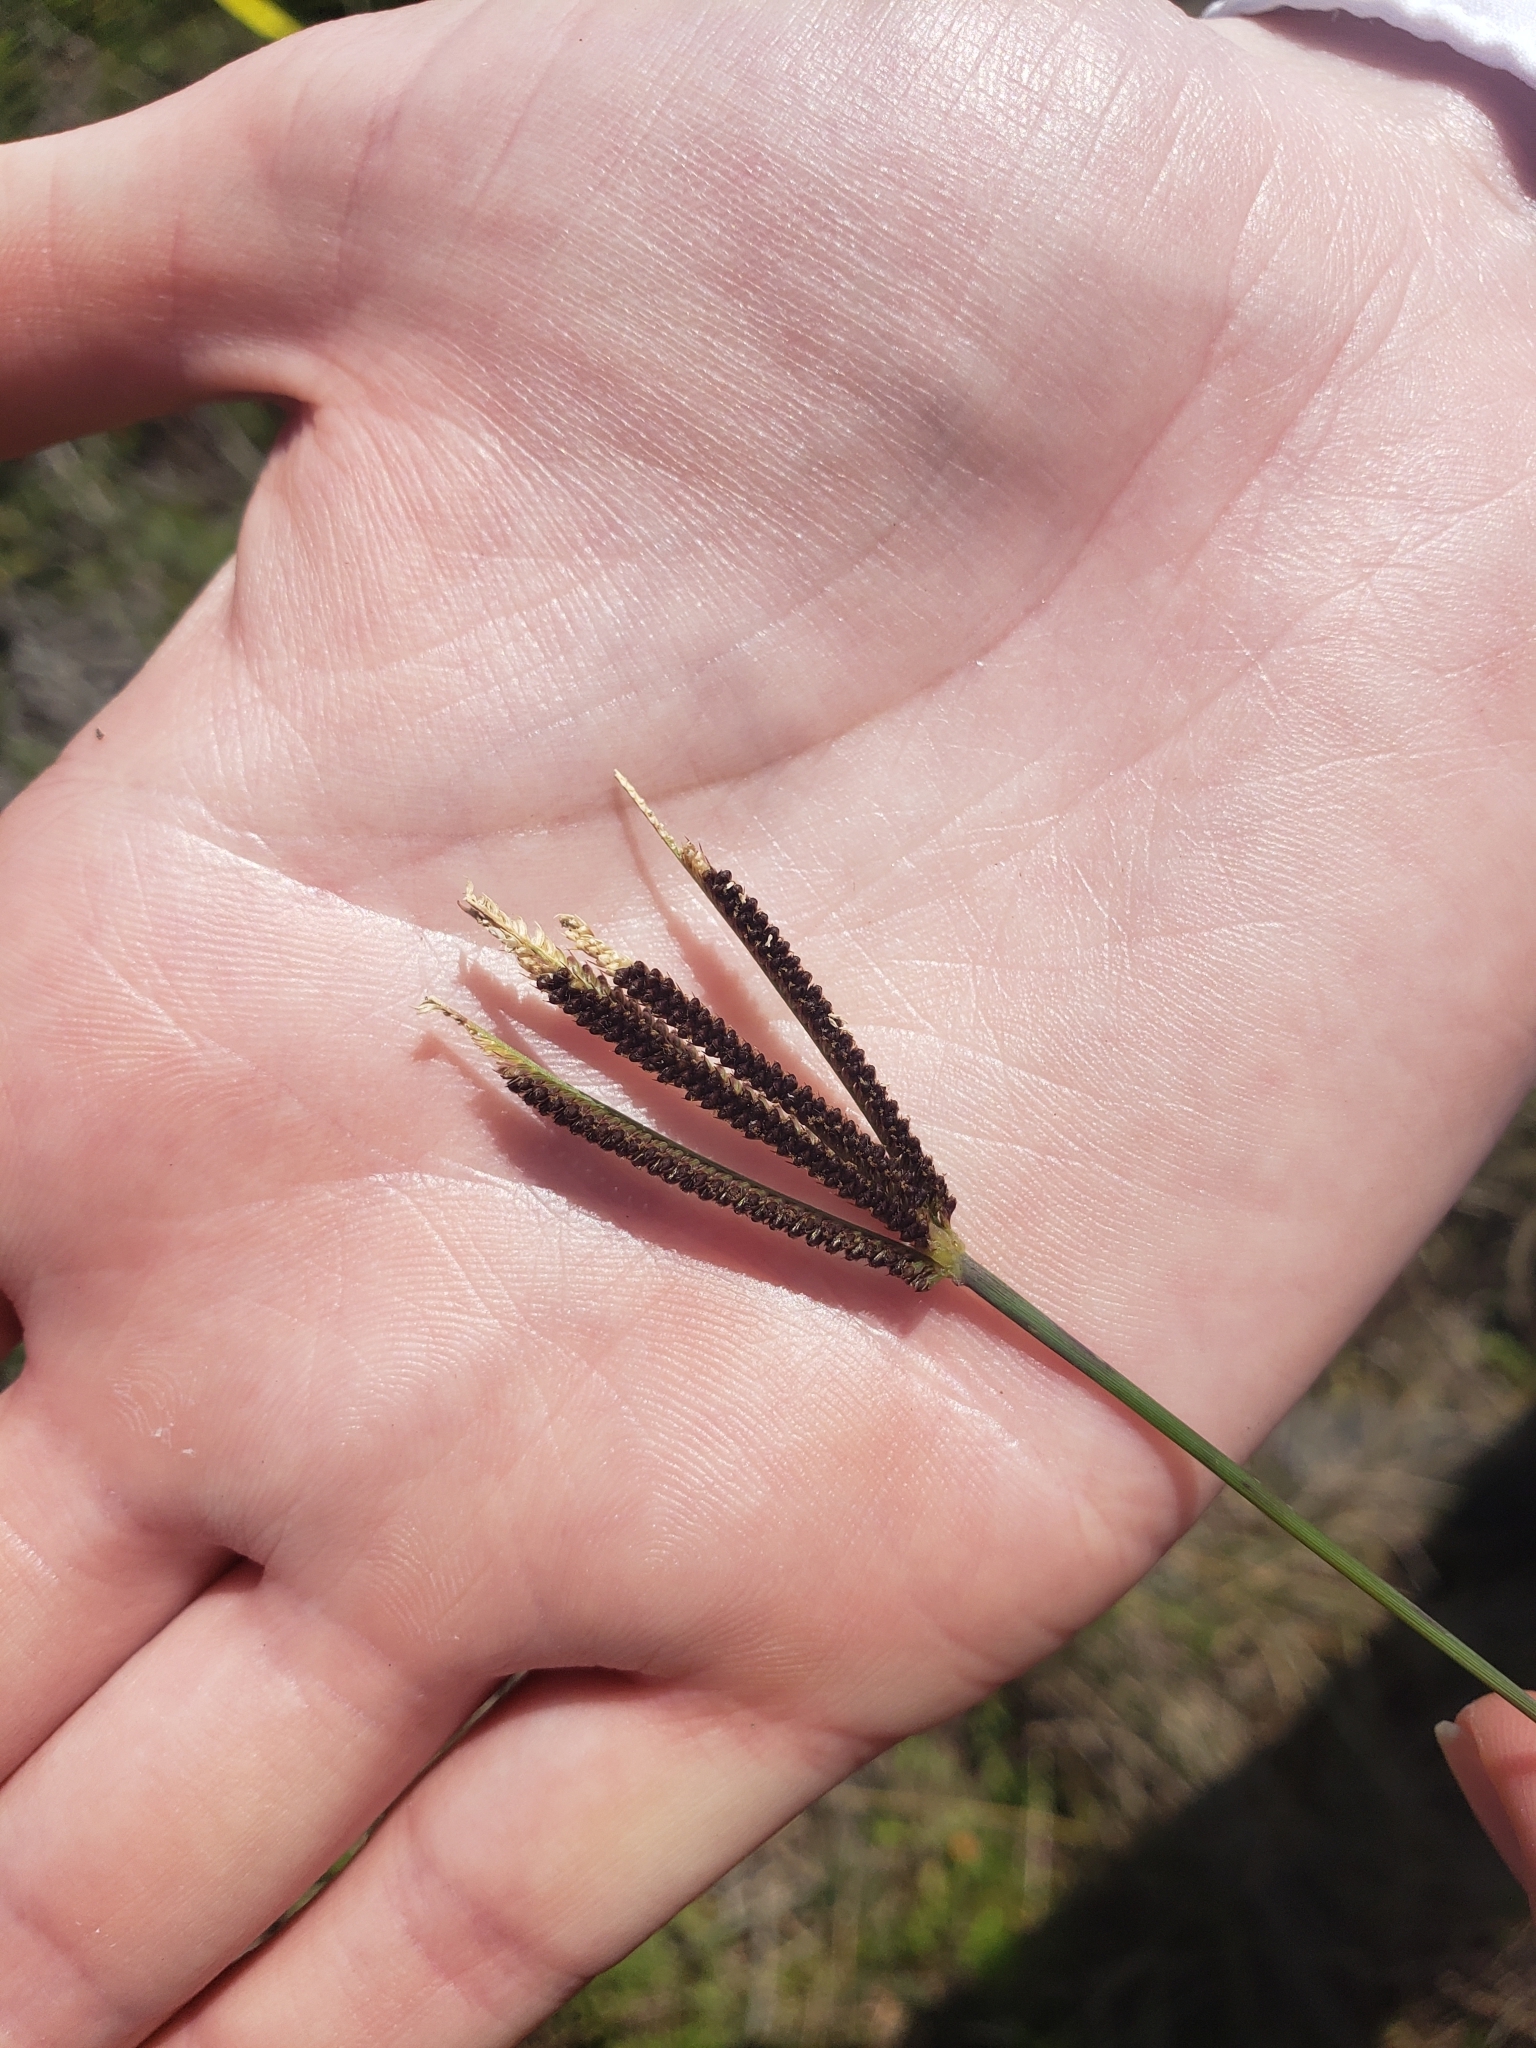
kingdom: Plantae
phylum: Tracheophyta
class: Liliopsida
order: Poales
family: Poaceae
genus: Eustachys
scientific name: Eustachys petraea
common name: Pinewoods fingergrass
